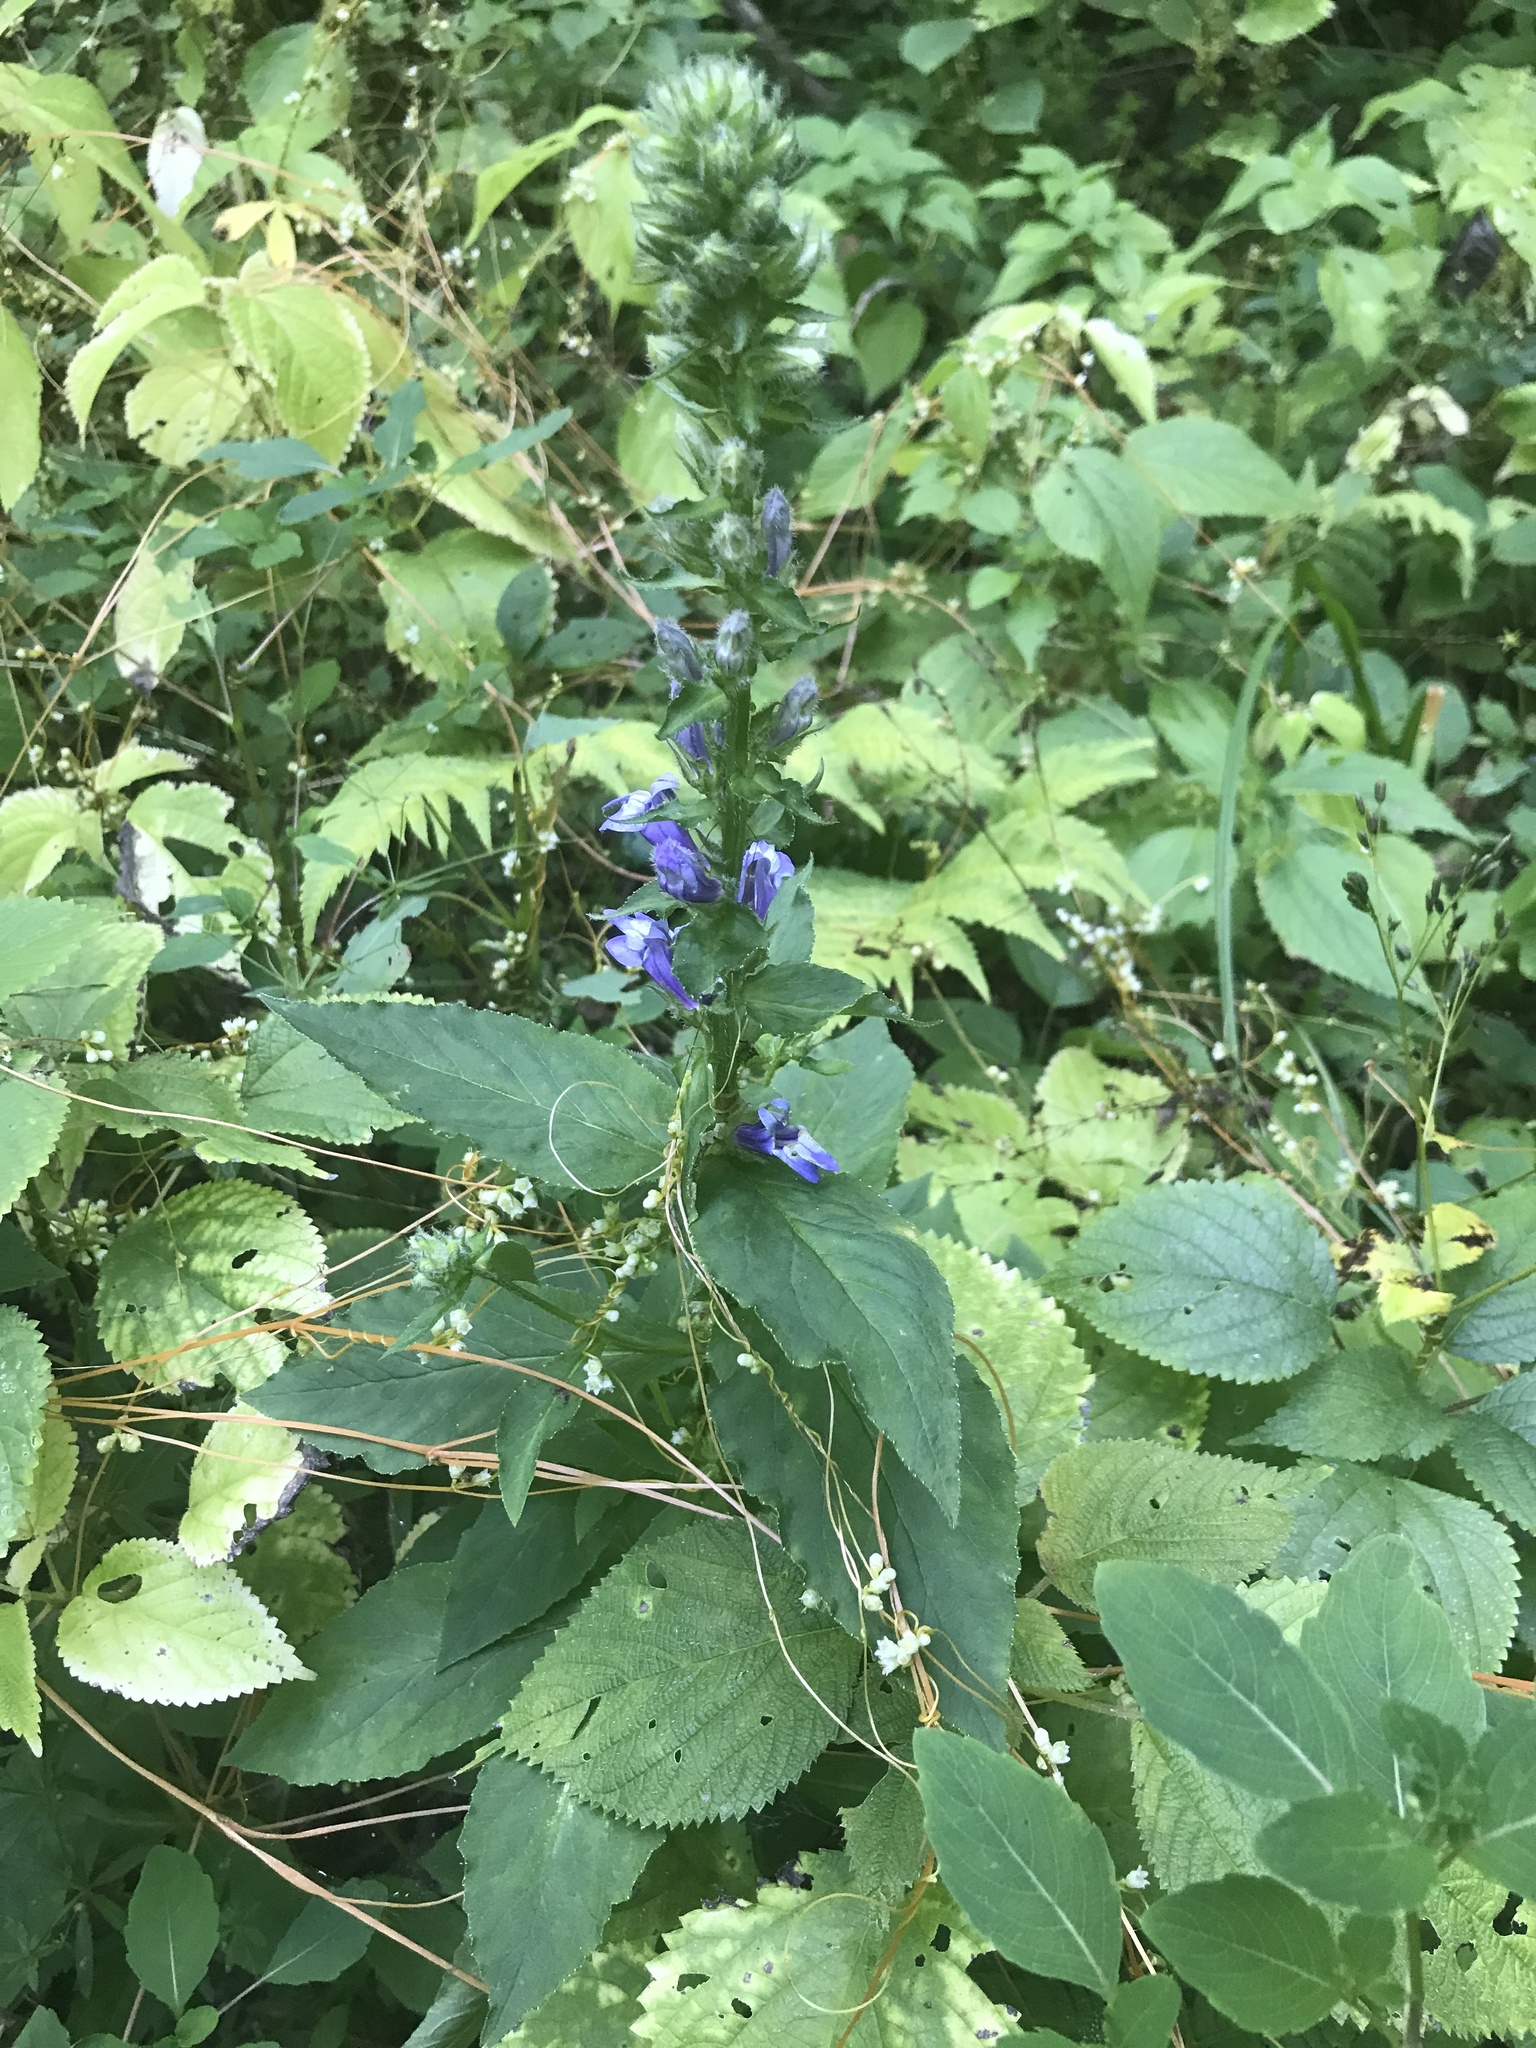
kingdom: Plantae
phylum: Tracheophyta
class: Magnoliopsida
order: Asterales
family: Campanulaceae
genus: Lobelia
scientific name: Lobelia siphilitica
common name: Great lobelia
